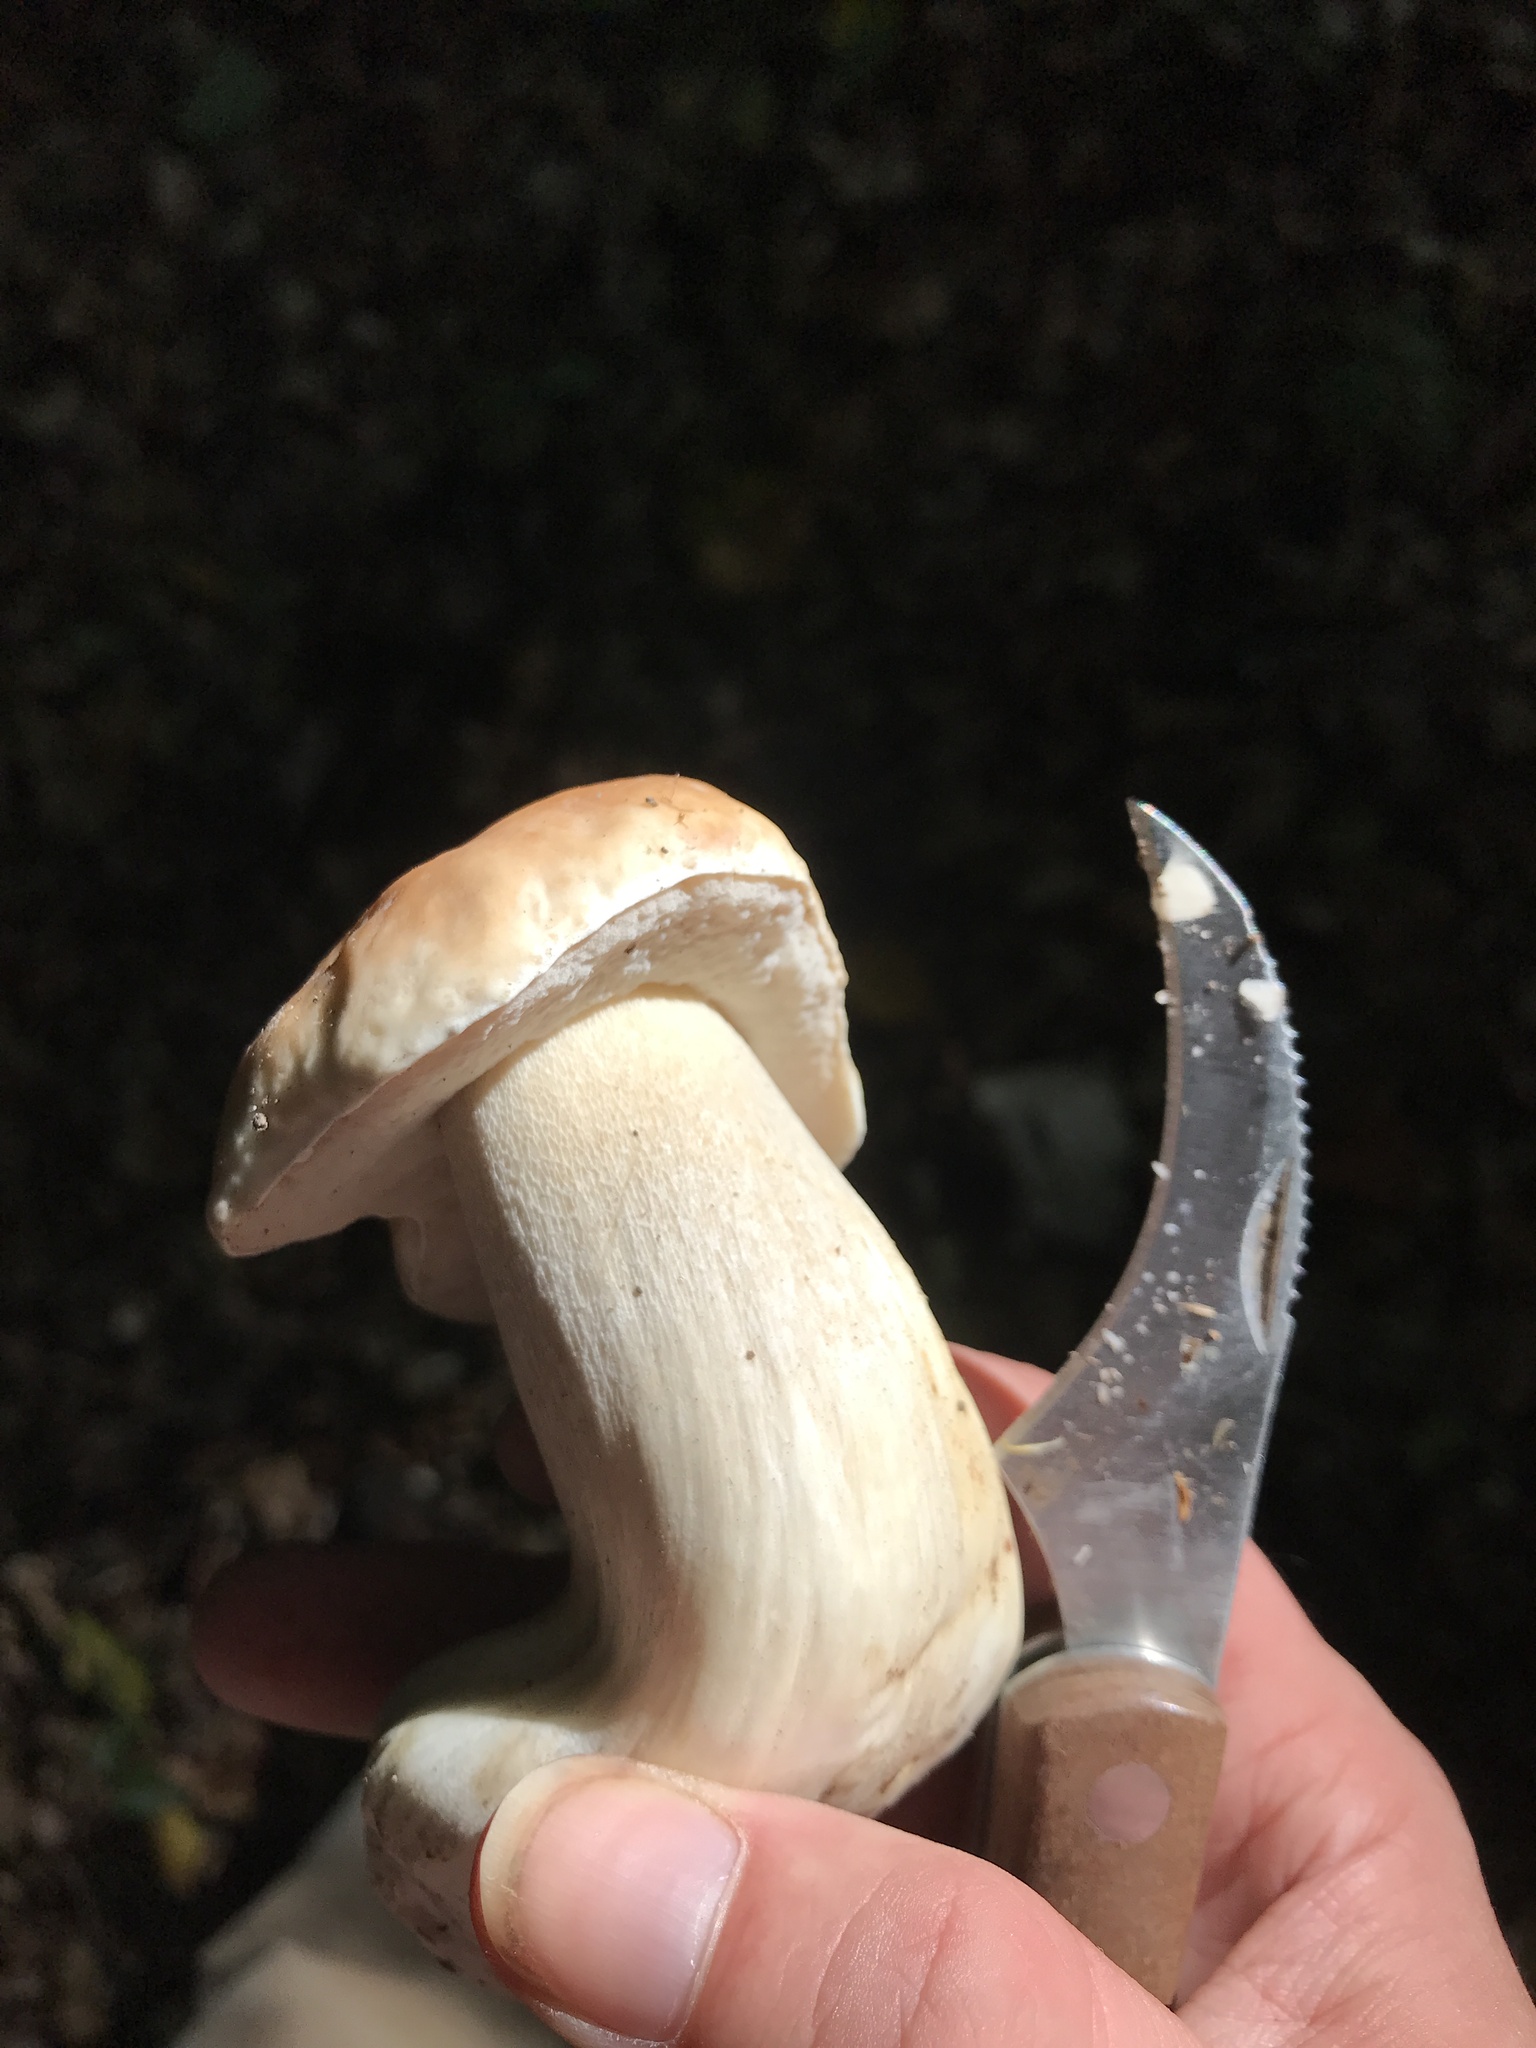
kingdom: Fungi
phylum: Basidiomycota
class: Agaricomycetes
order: Boletales
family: Boletaceae
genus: Boletus
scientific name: Boletus edulis
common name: Cep
